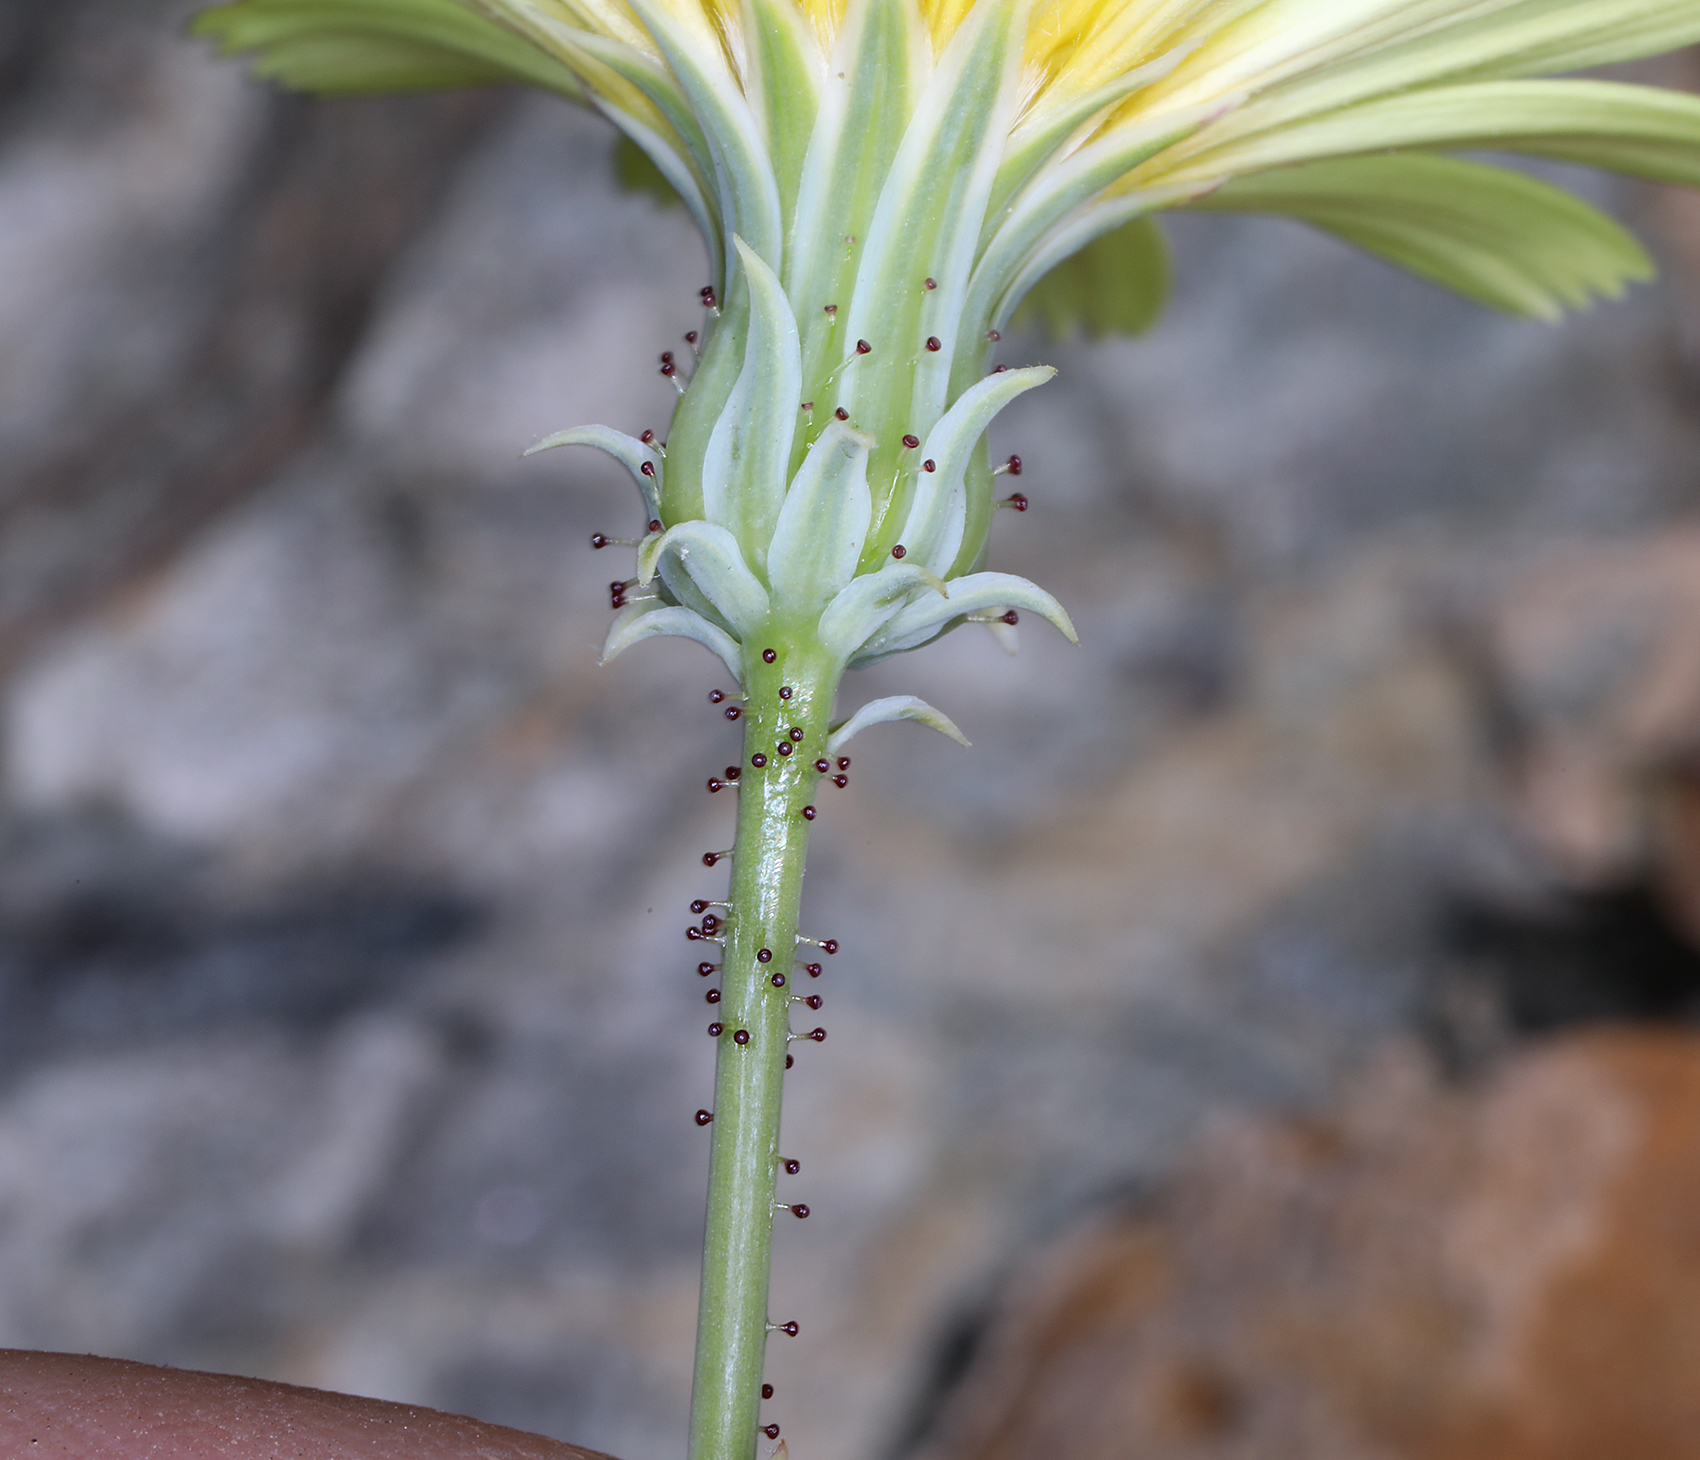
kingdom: Plantae
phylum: Tracheophyta
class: Magnoliopsida
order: Asterales
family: Asteraceae
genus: Calycoseris
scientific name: Calycoseris parryi
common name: Yellow tackstem
